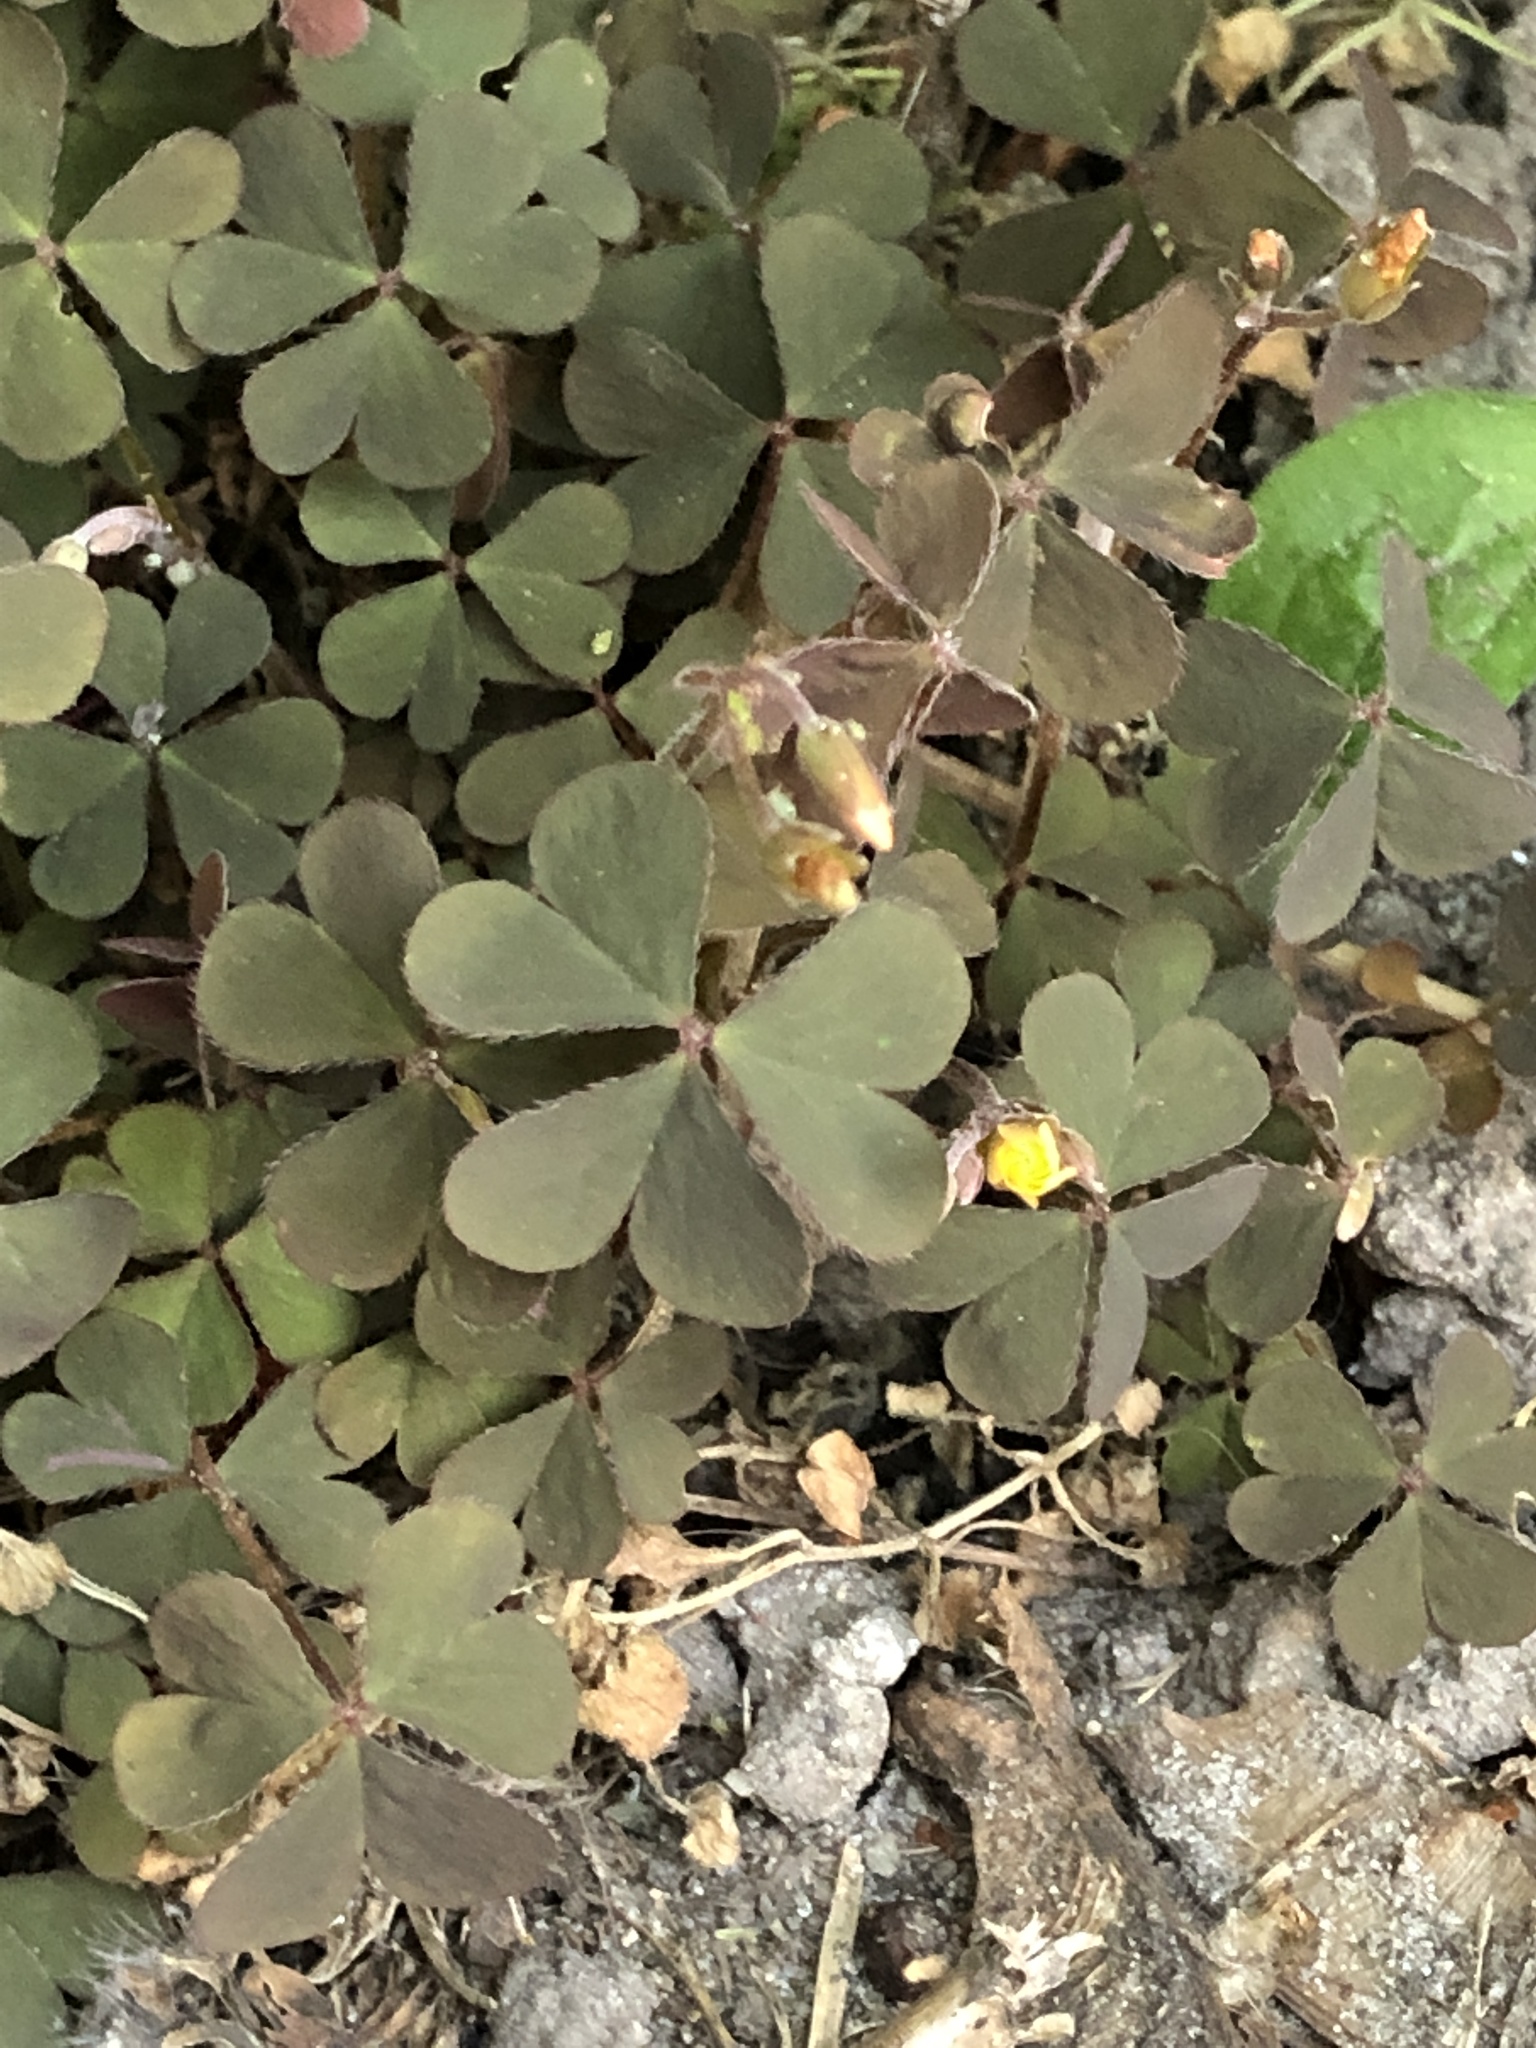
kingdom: Plantae
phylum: Tracheophyta
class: Magnoliopsida
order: Oxalidales
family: Oxalidaceae
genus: Oxalis
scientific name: Oxalis corniculata
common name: Procumbent yellow-sorrel
